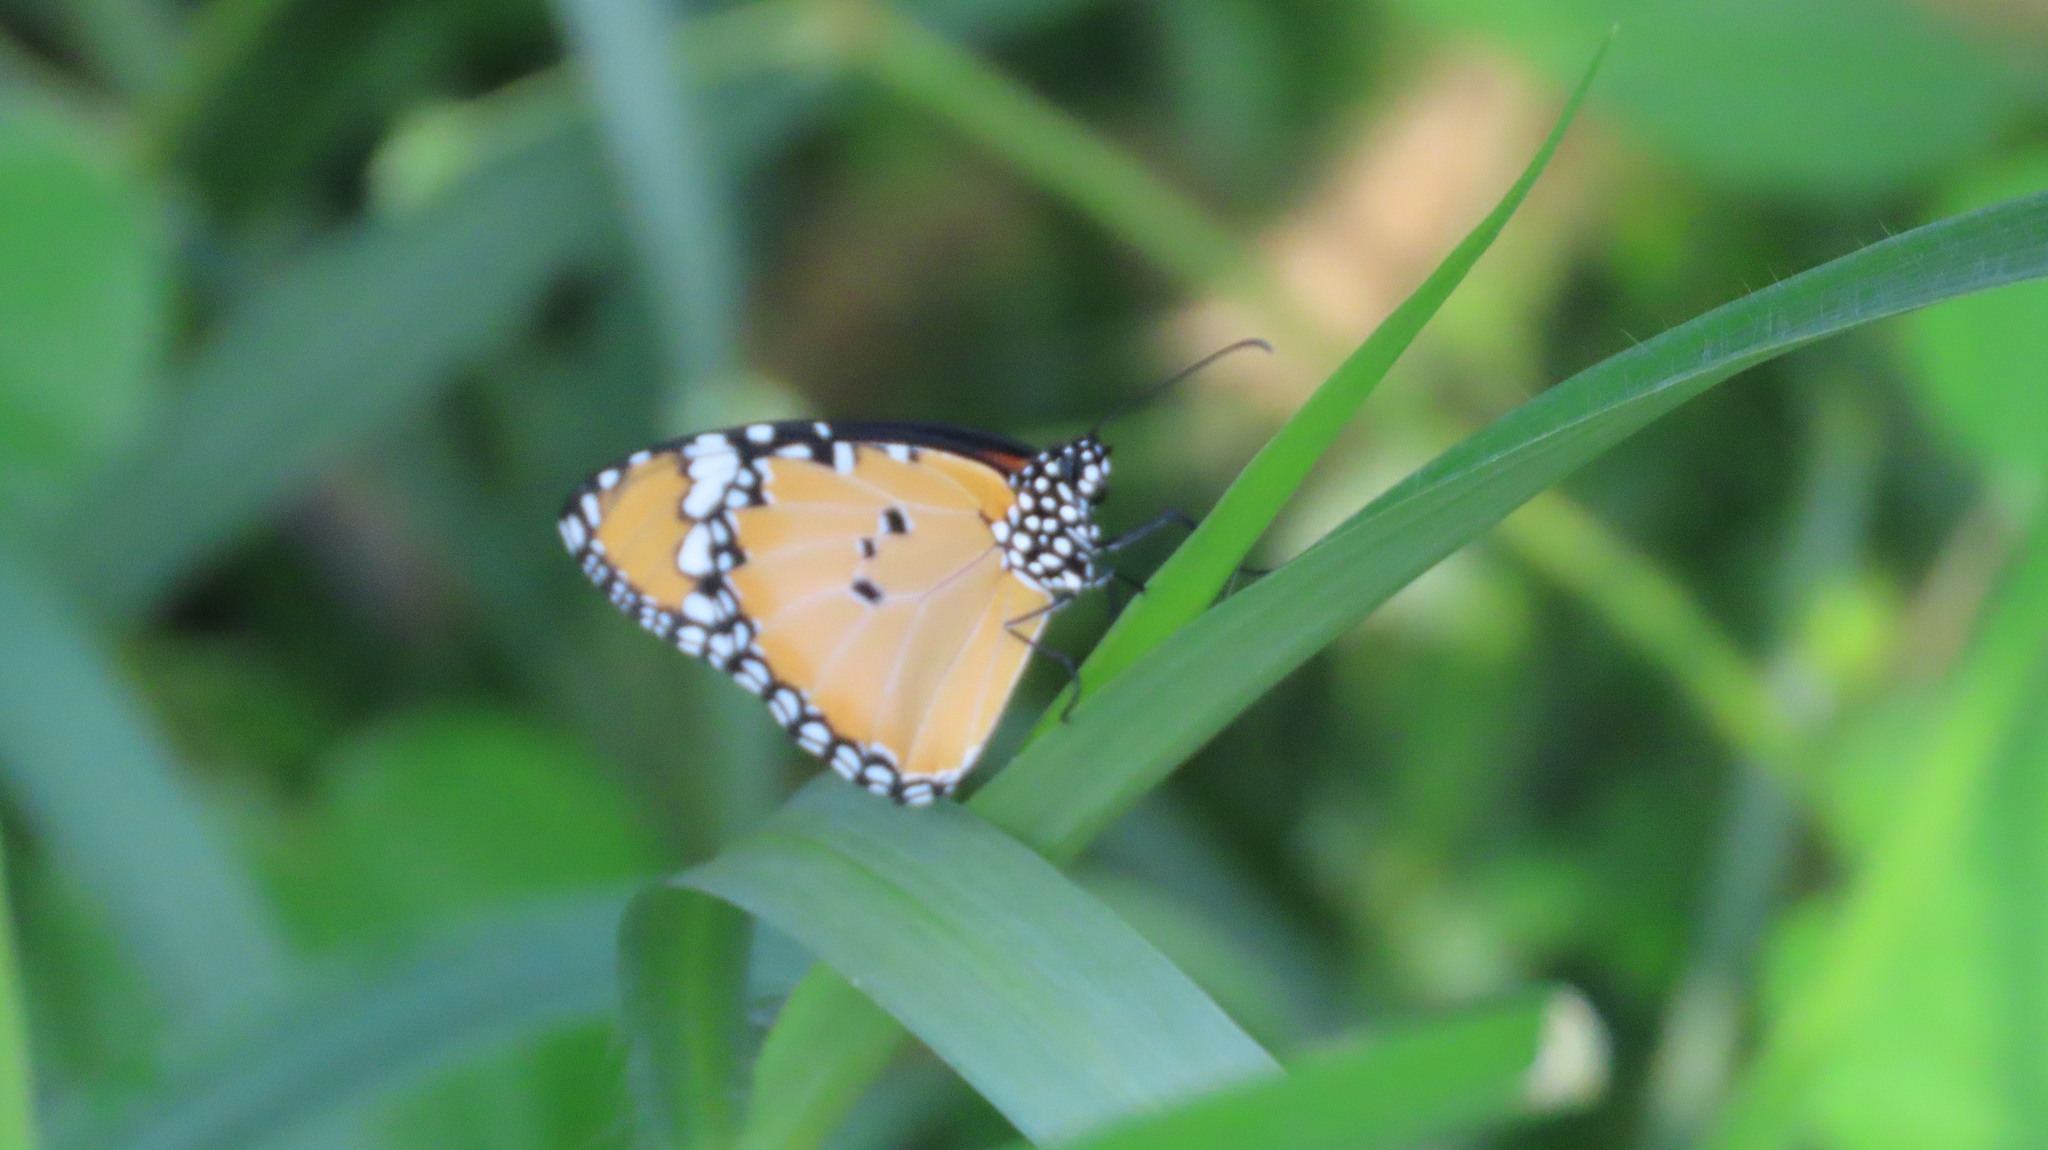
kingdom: Animalia
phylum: Arthropoda
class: Insecta
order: Lepidoptera
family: Nymphalidae
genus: Danaus
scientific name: Danaus chrysippus
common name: Plain tiger
